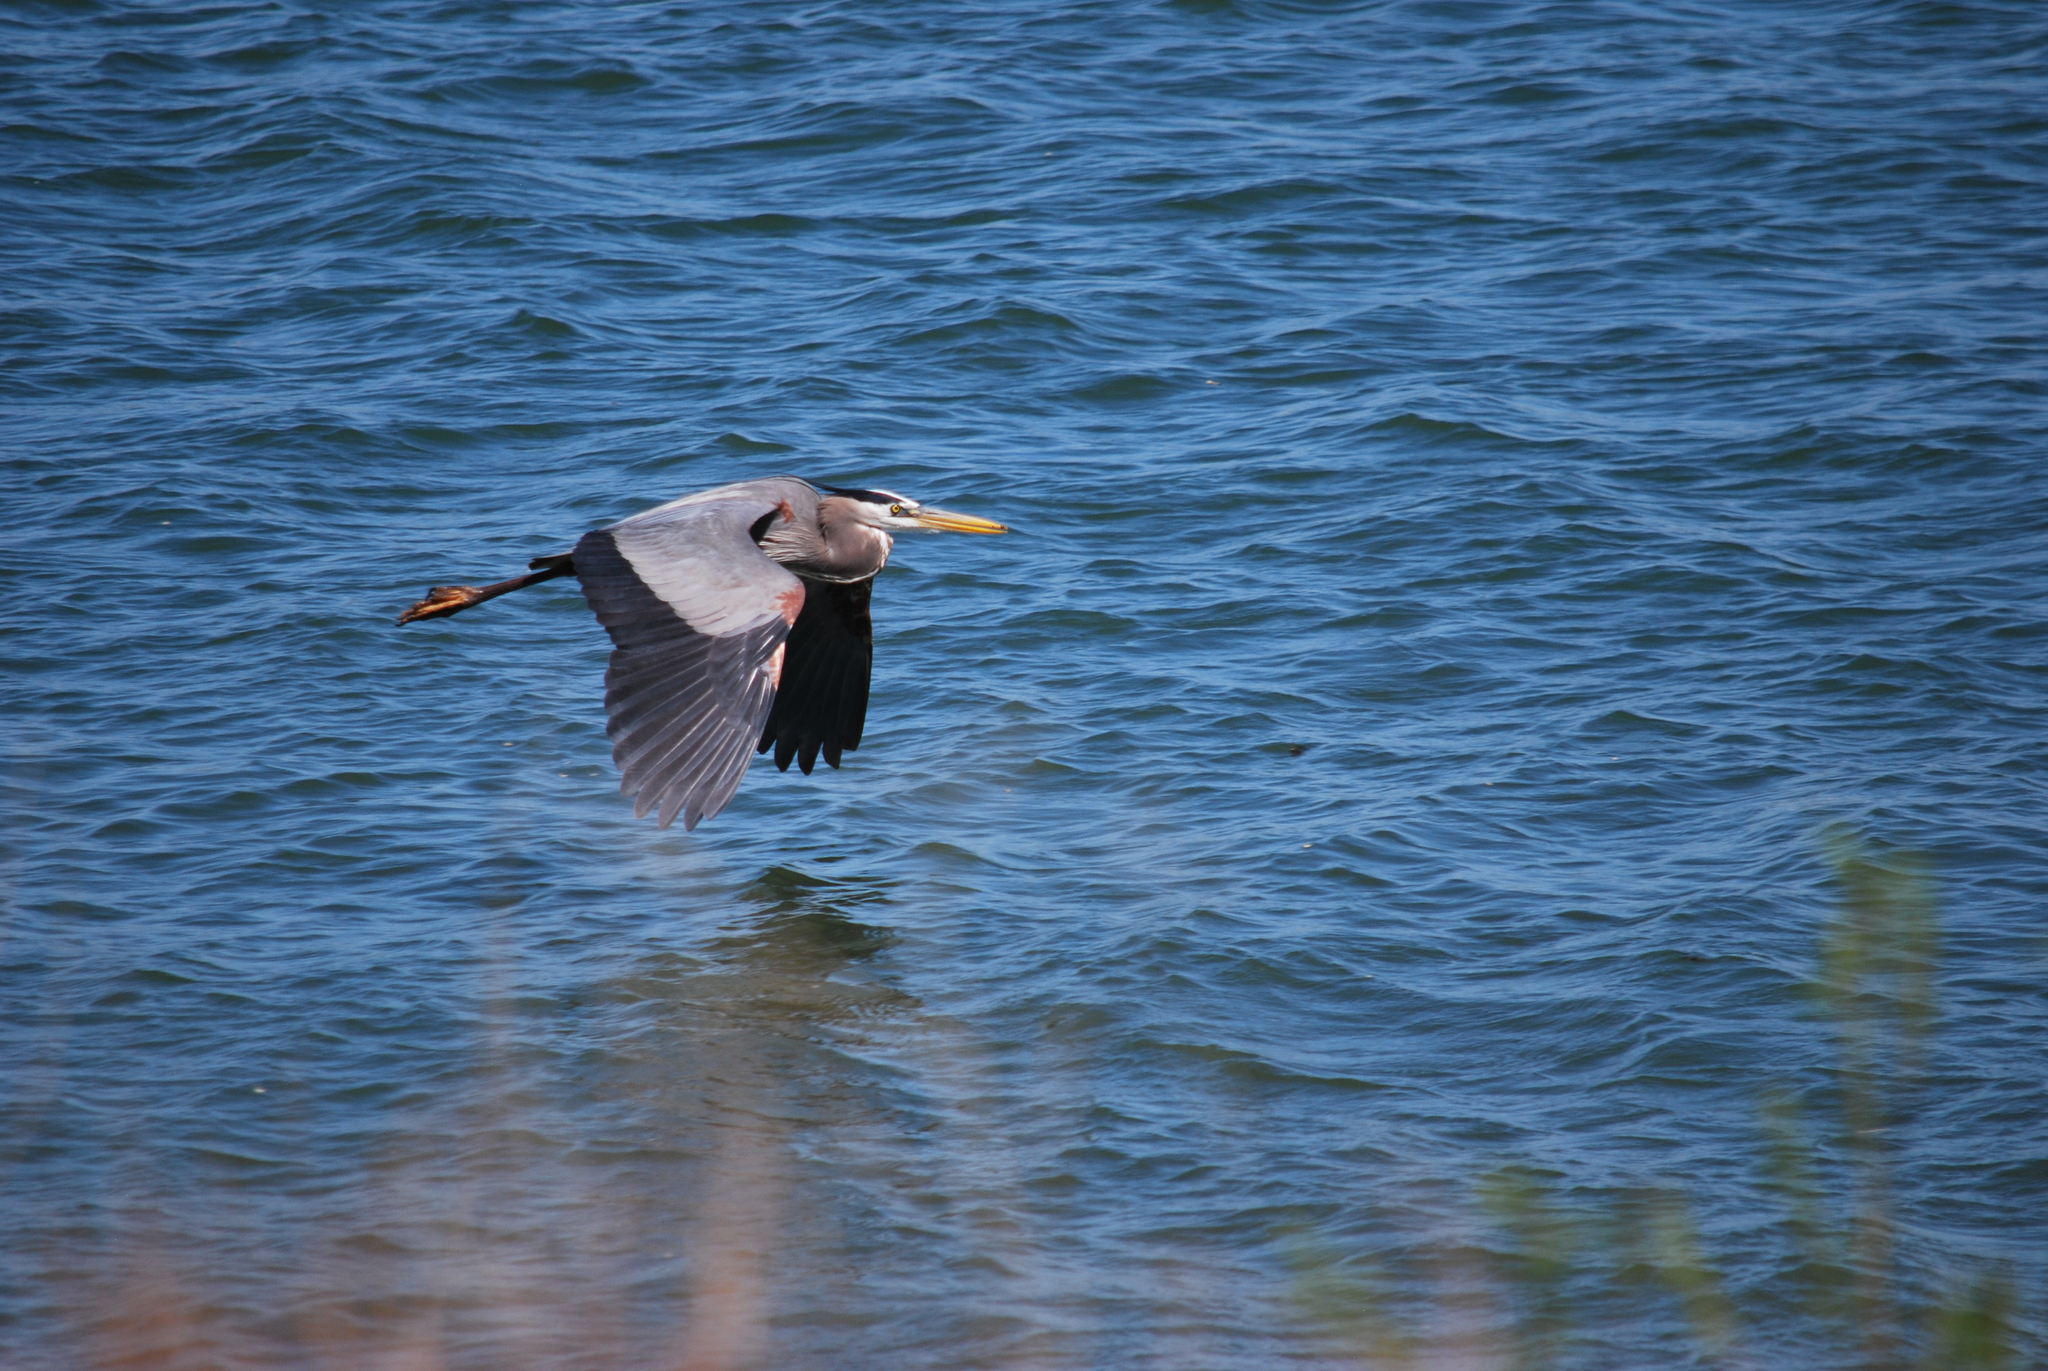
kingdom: Animalia
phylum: Chordata
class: Aves
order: Pelecaniformes
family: Ardeidae
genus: Ardea
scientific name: Ardea herodias
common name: Great blue heron
